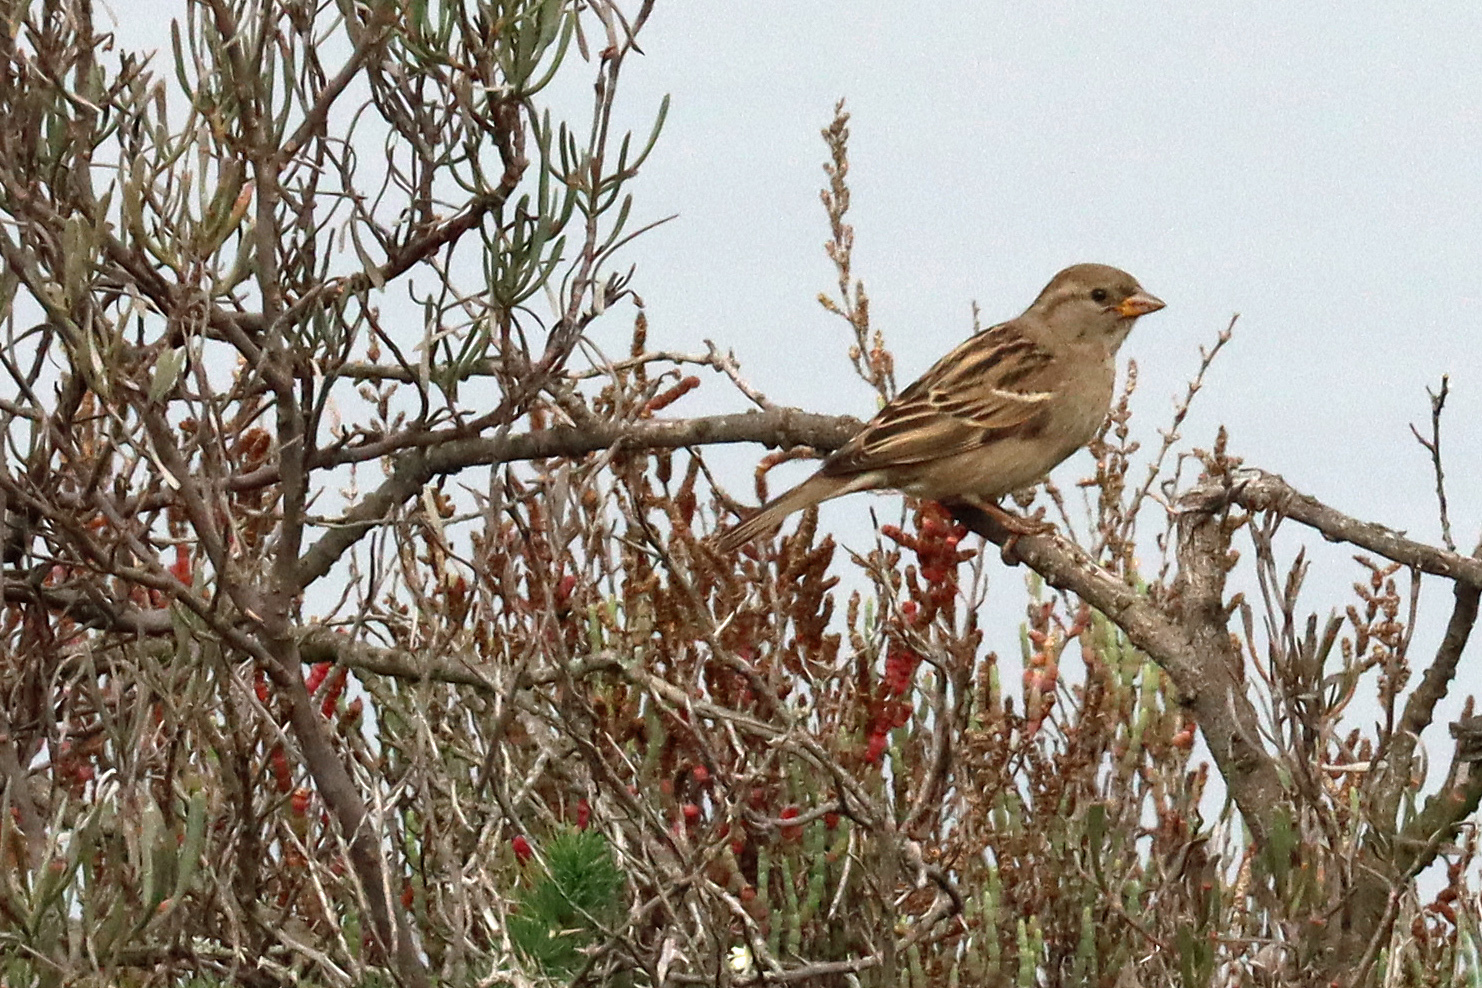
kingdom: Animalia
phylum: Chordata
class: Aves
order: Passeriformes
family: Passeridae
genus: Passer
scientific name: Passer domesticus
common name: House sparrow
